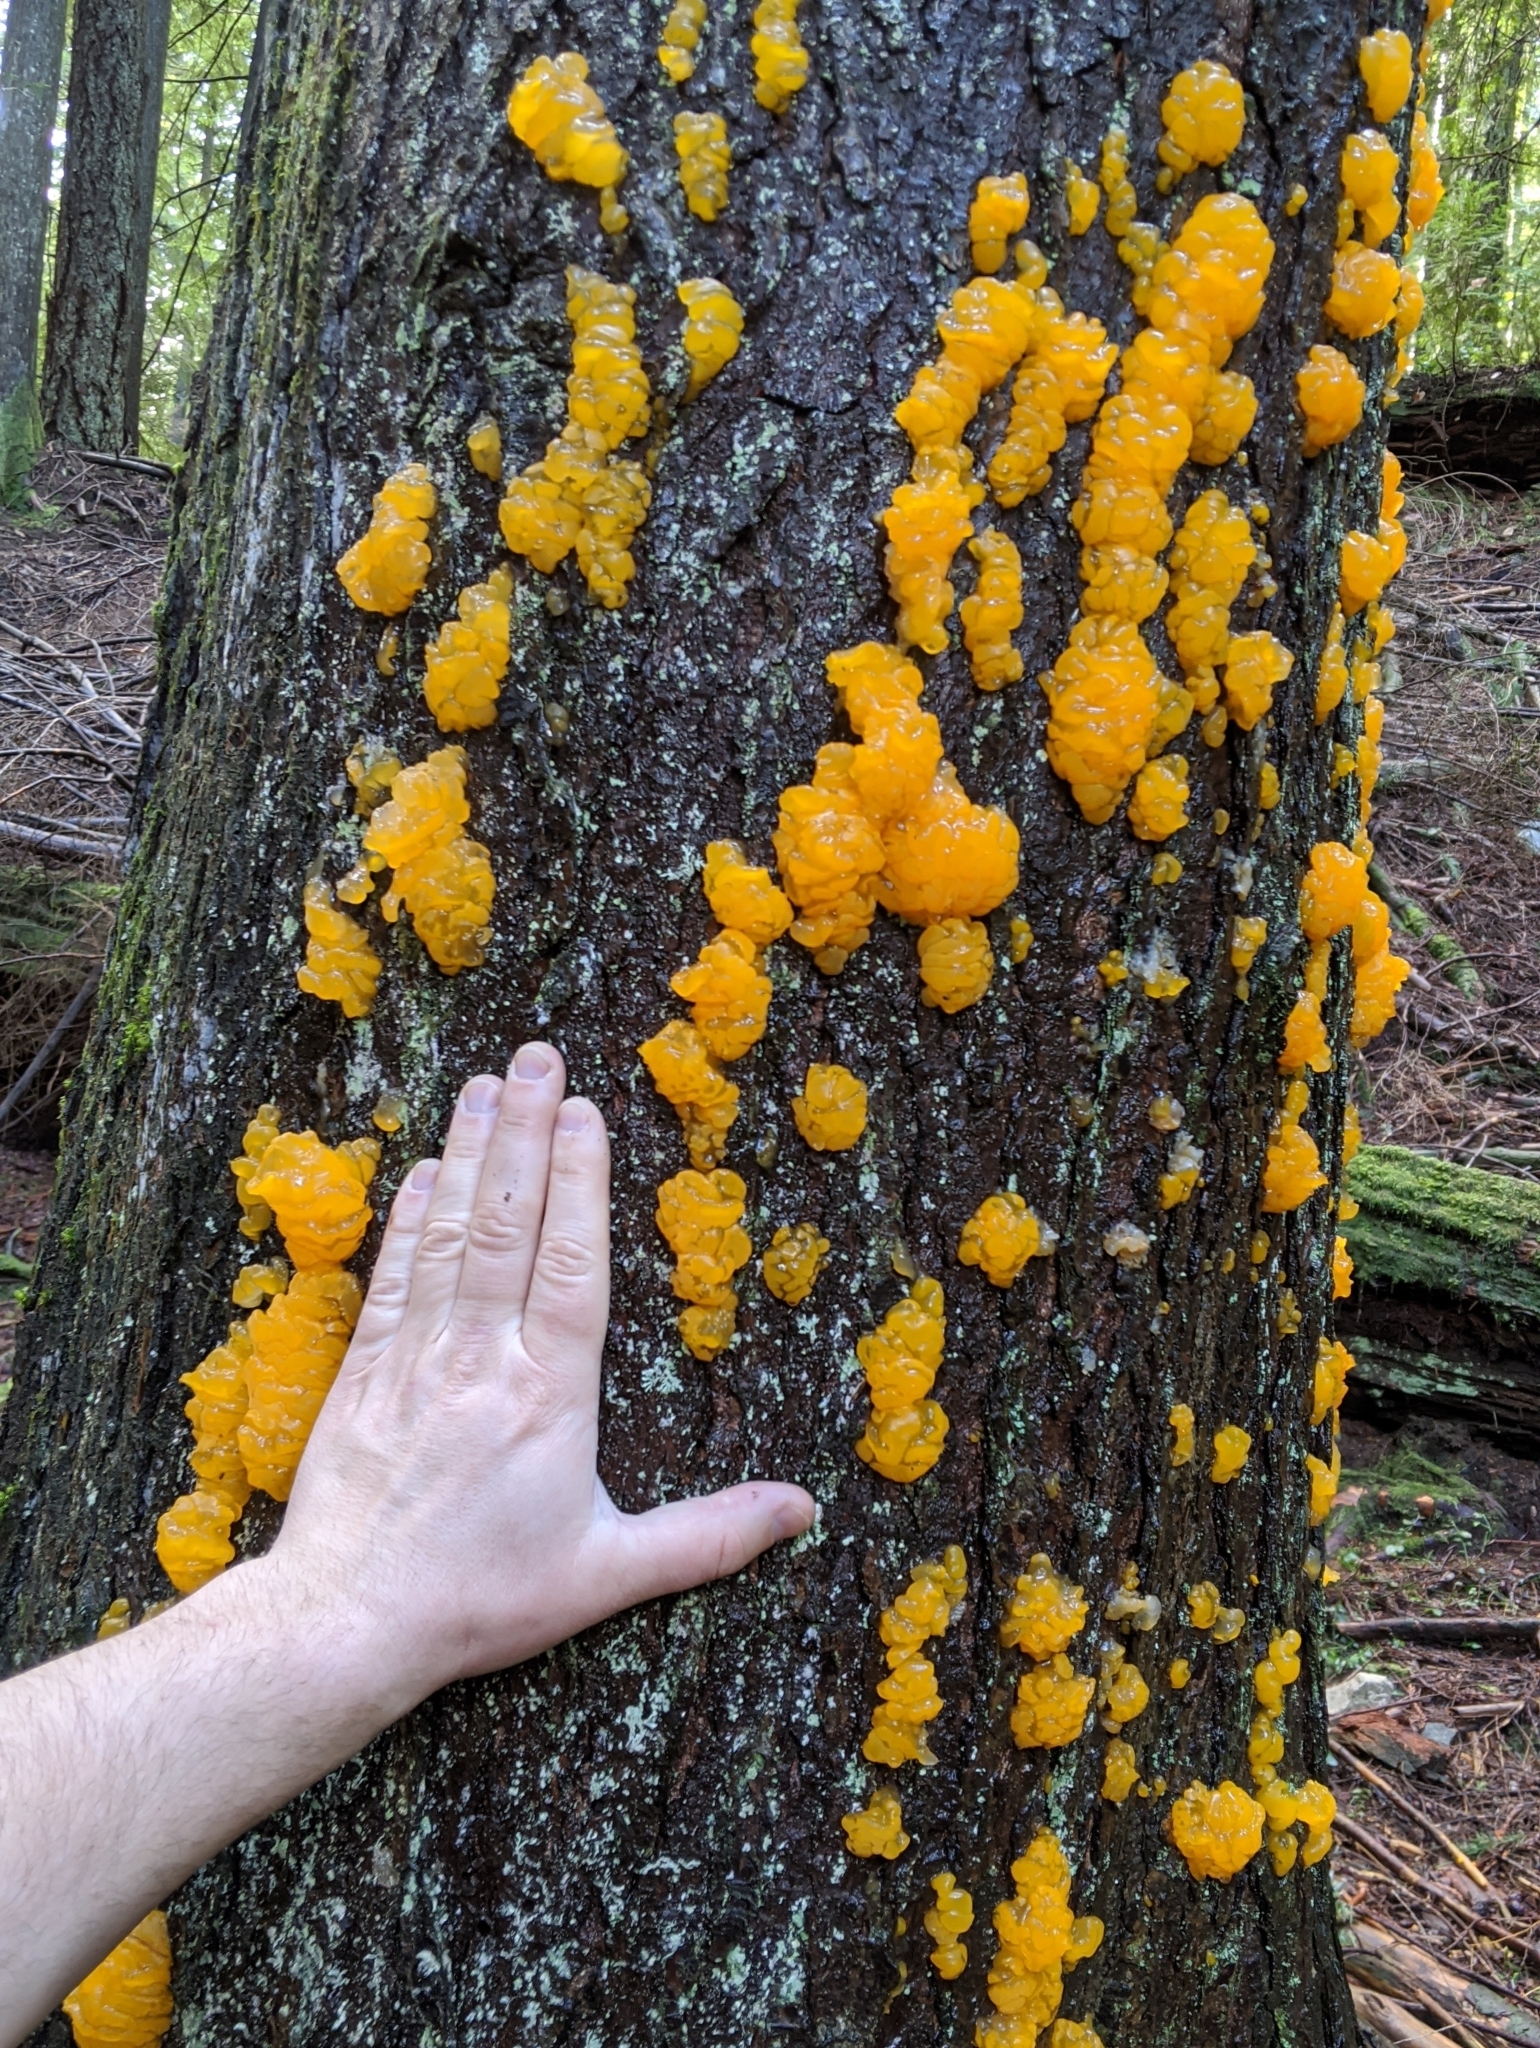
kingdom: Fungi
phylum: Basidiomycota
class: Dacrymycetes
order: Dacrymycetales
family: Dacrymycetaceae
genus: Dacrymyces
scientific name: Dacrymyces chrysospermus
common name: Orange jelly spot
